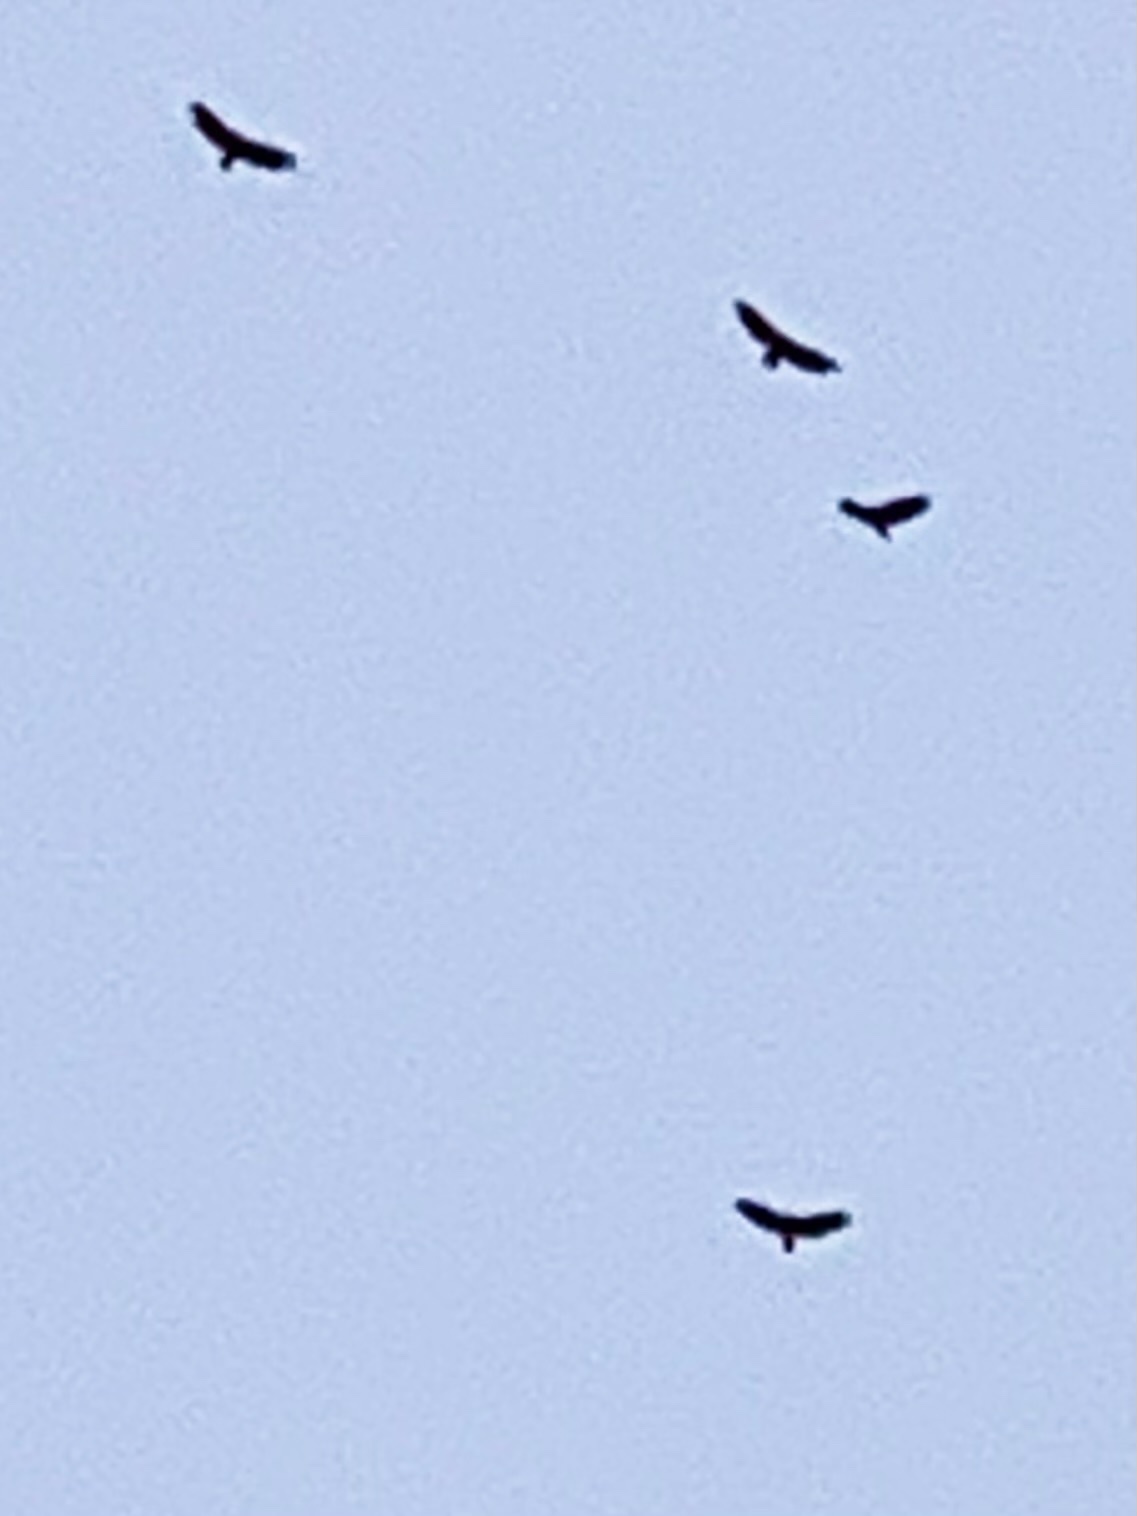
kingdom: Animalia
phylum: Chordata
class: Aves
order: Accipitriformes
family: Cathartidae
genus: Cathartes
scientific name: Cathartes aura
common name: Turkey vulture
